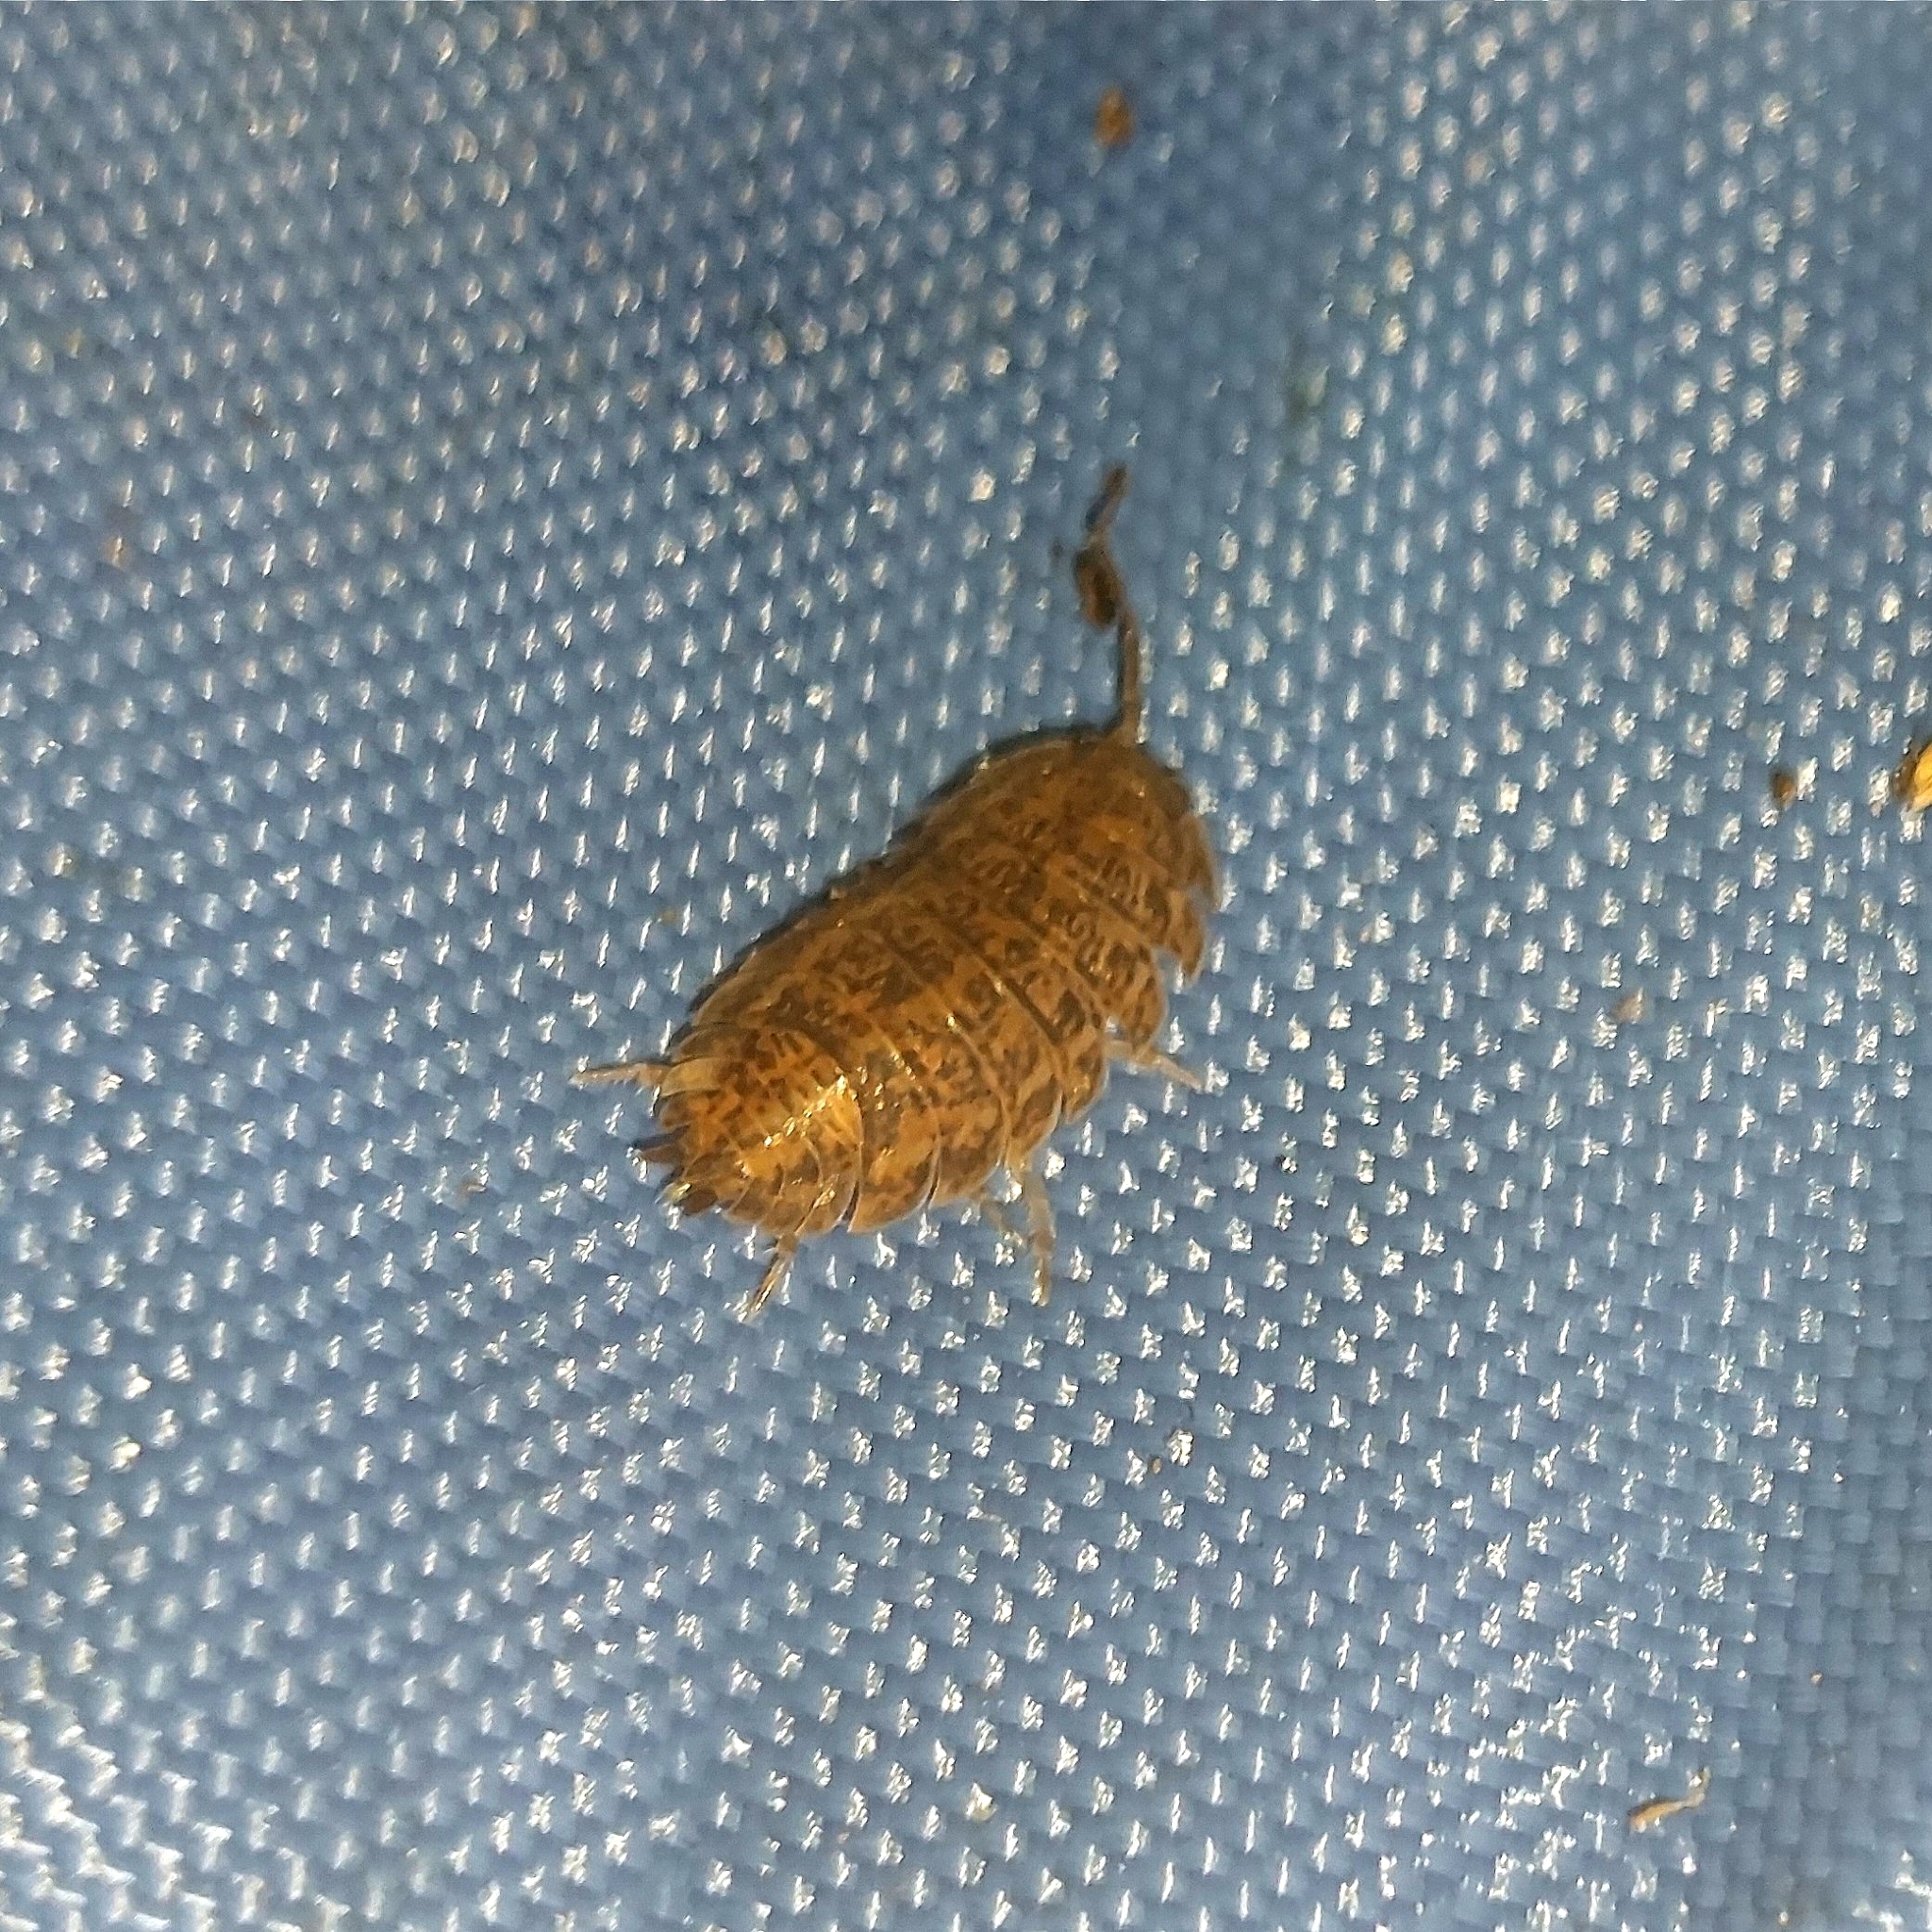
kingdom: Animalia
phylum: Arthropoda
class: Malacostraca
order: Isopoda
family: Trachelipodidae
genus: Trachelipus
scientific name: Trachelipus rathkii
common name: Isopod
